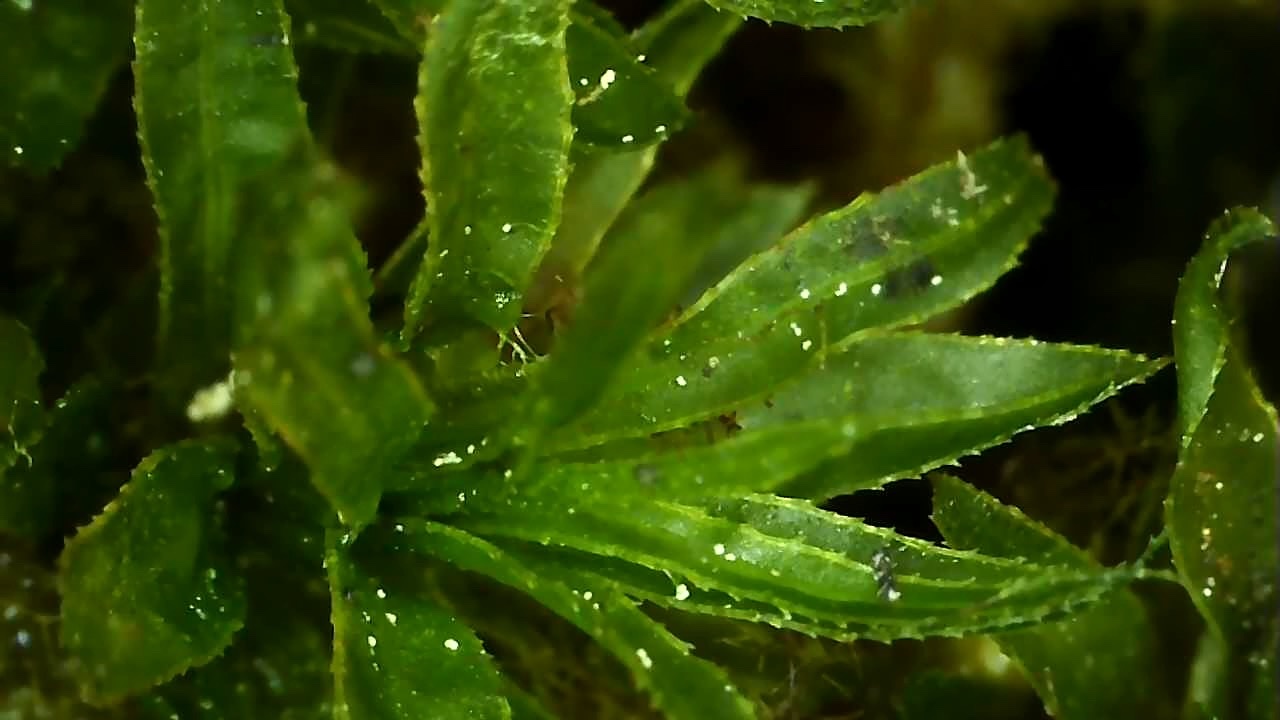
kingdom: Plantae
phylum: Bryophyta
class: Polytrichopsida
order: Polytrichales
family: Polytrichaceae
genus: Atrichum
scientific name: Atrichum undulatum
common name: Common smoothcap
